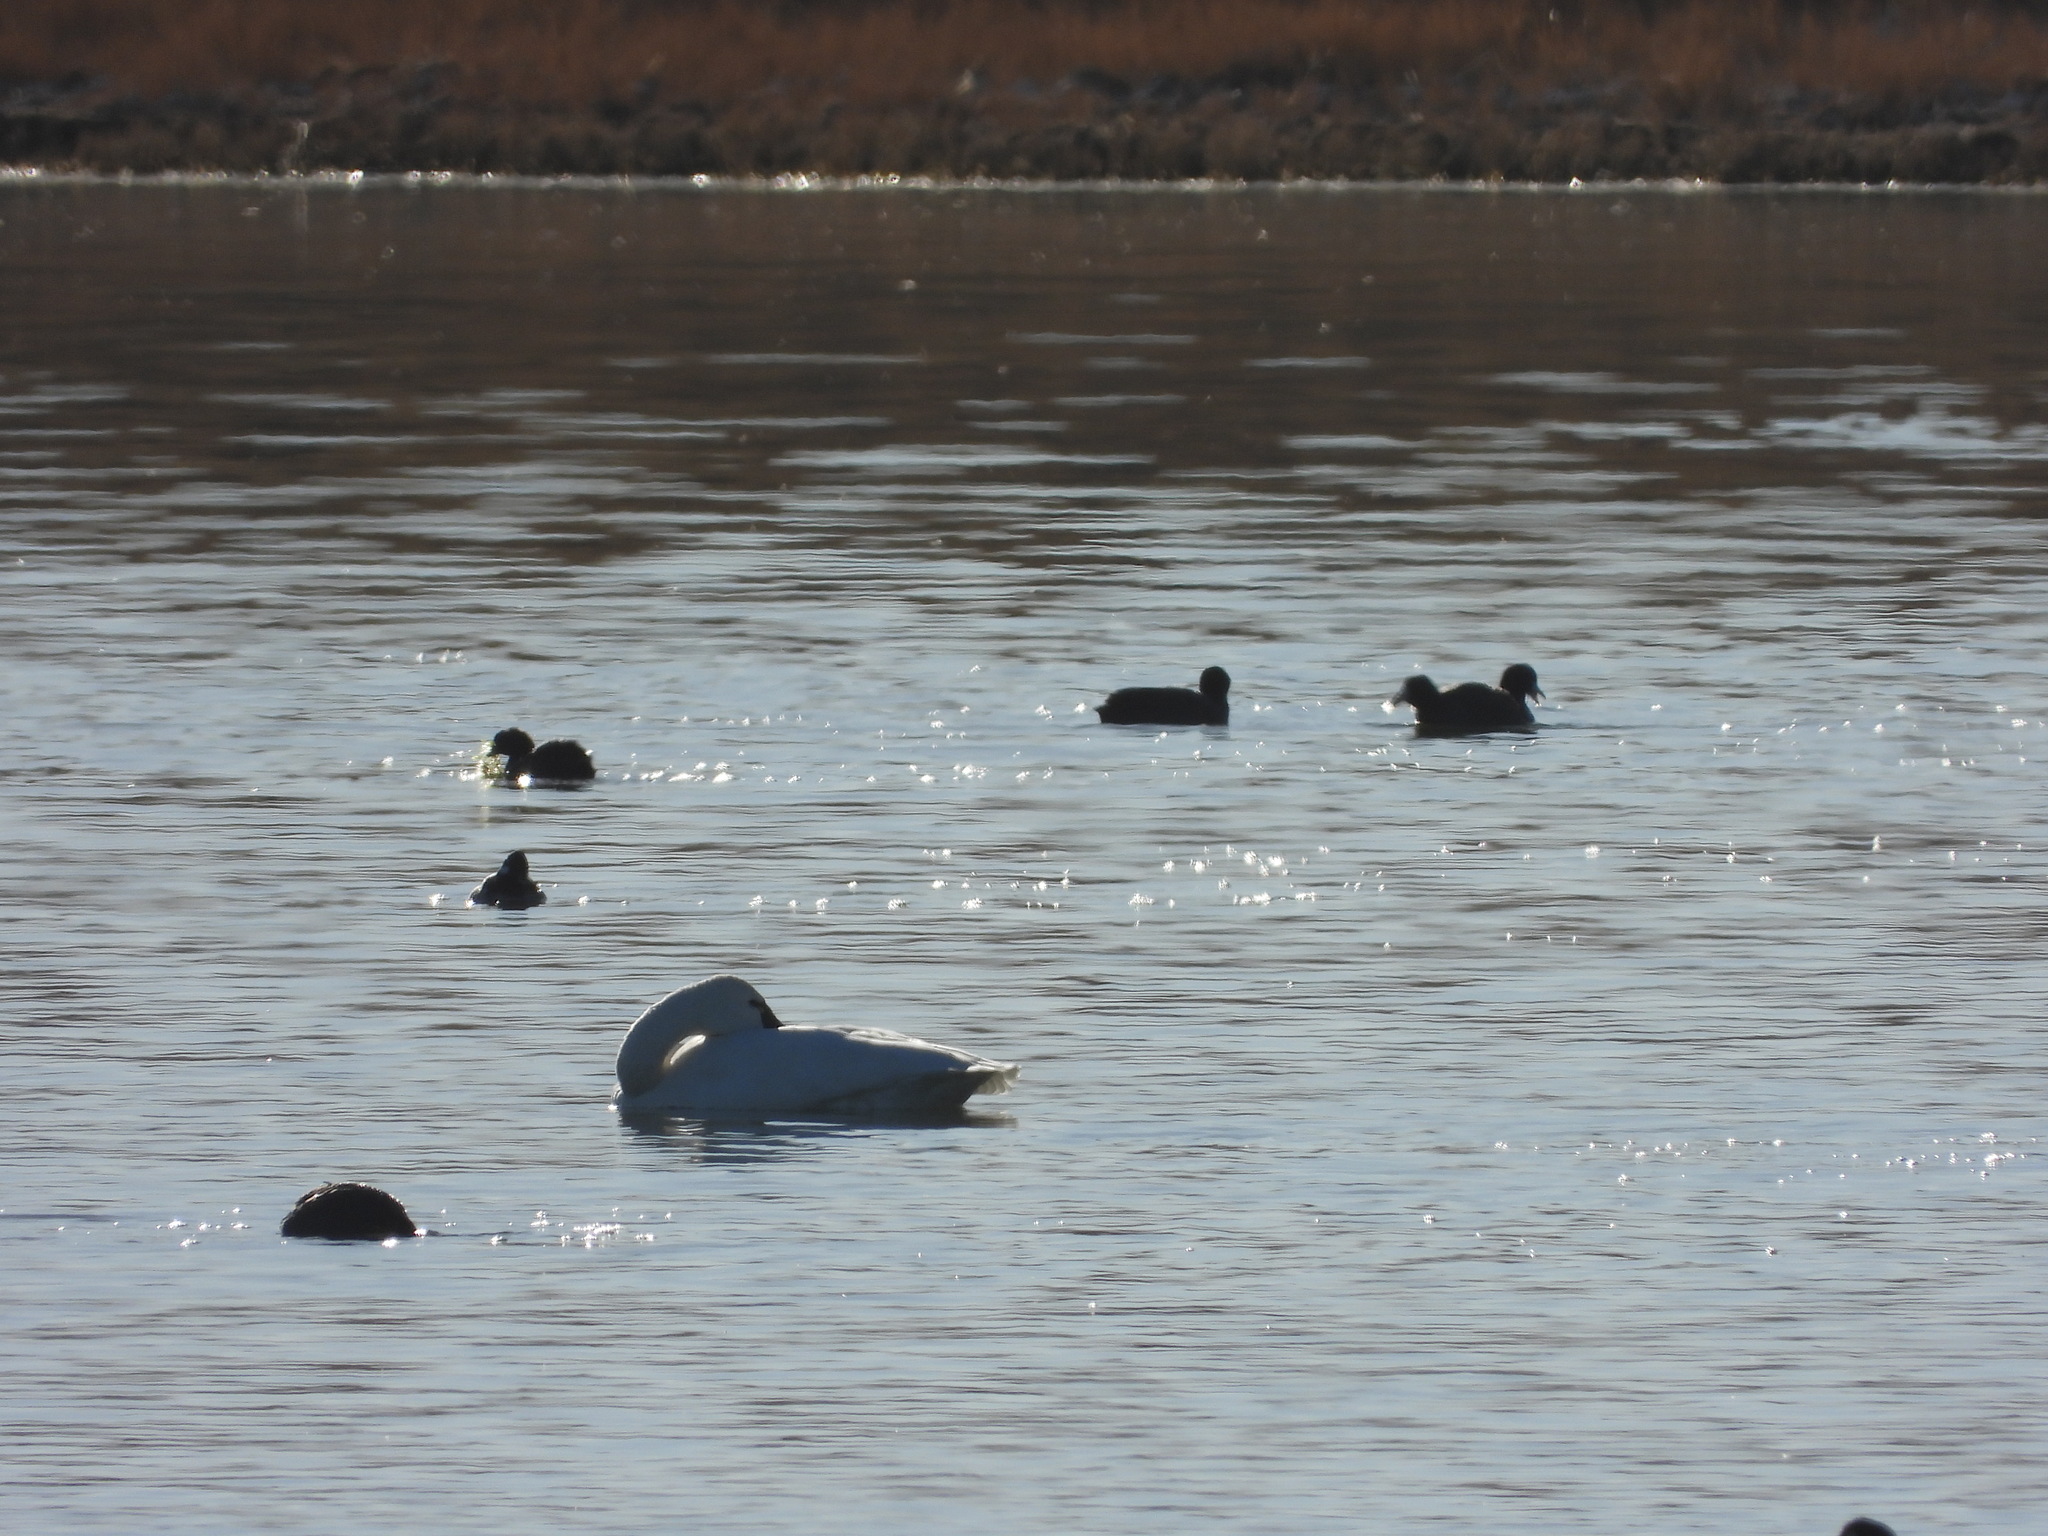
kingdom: Animalia
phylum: Chordata
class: Aves
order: Anseriformes
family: Anatidae
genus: Cygnus
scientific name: Cygnus columbianus
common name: Tundra swan
